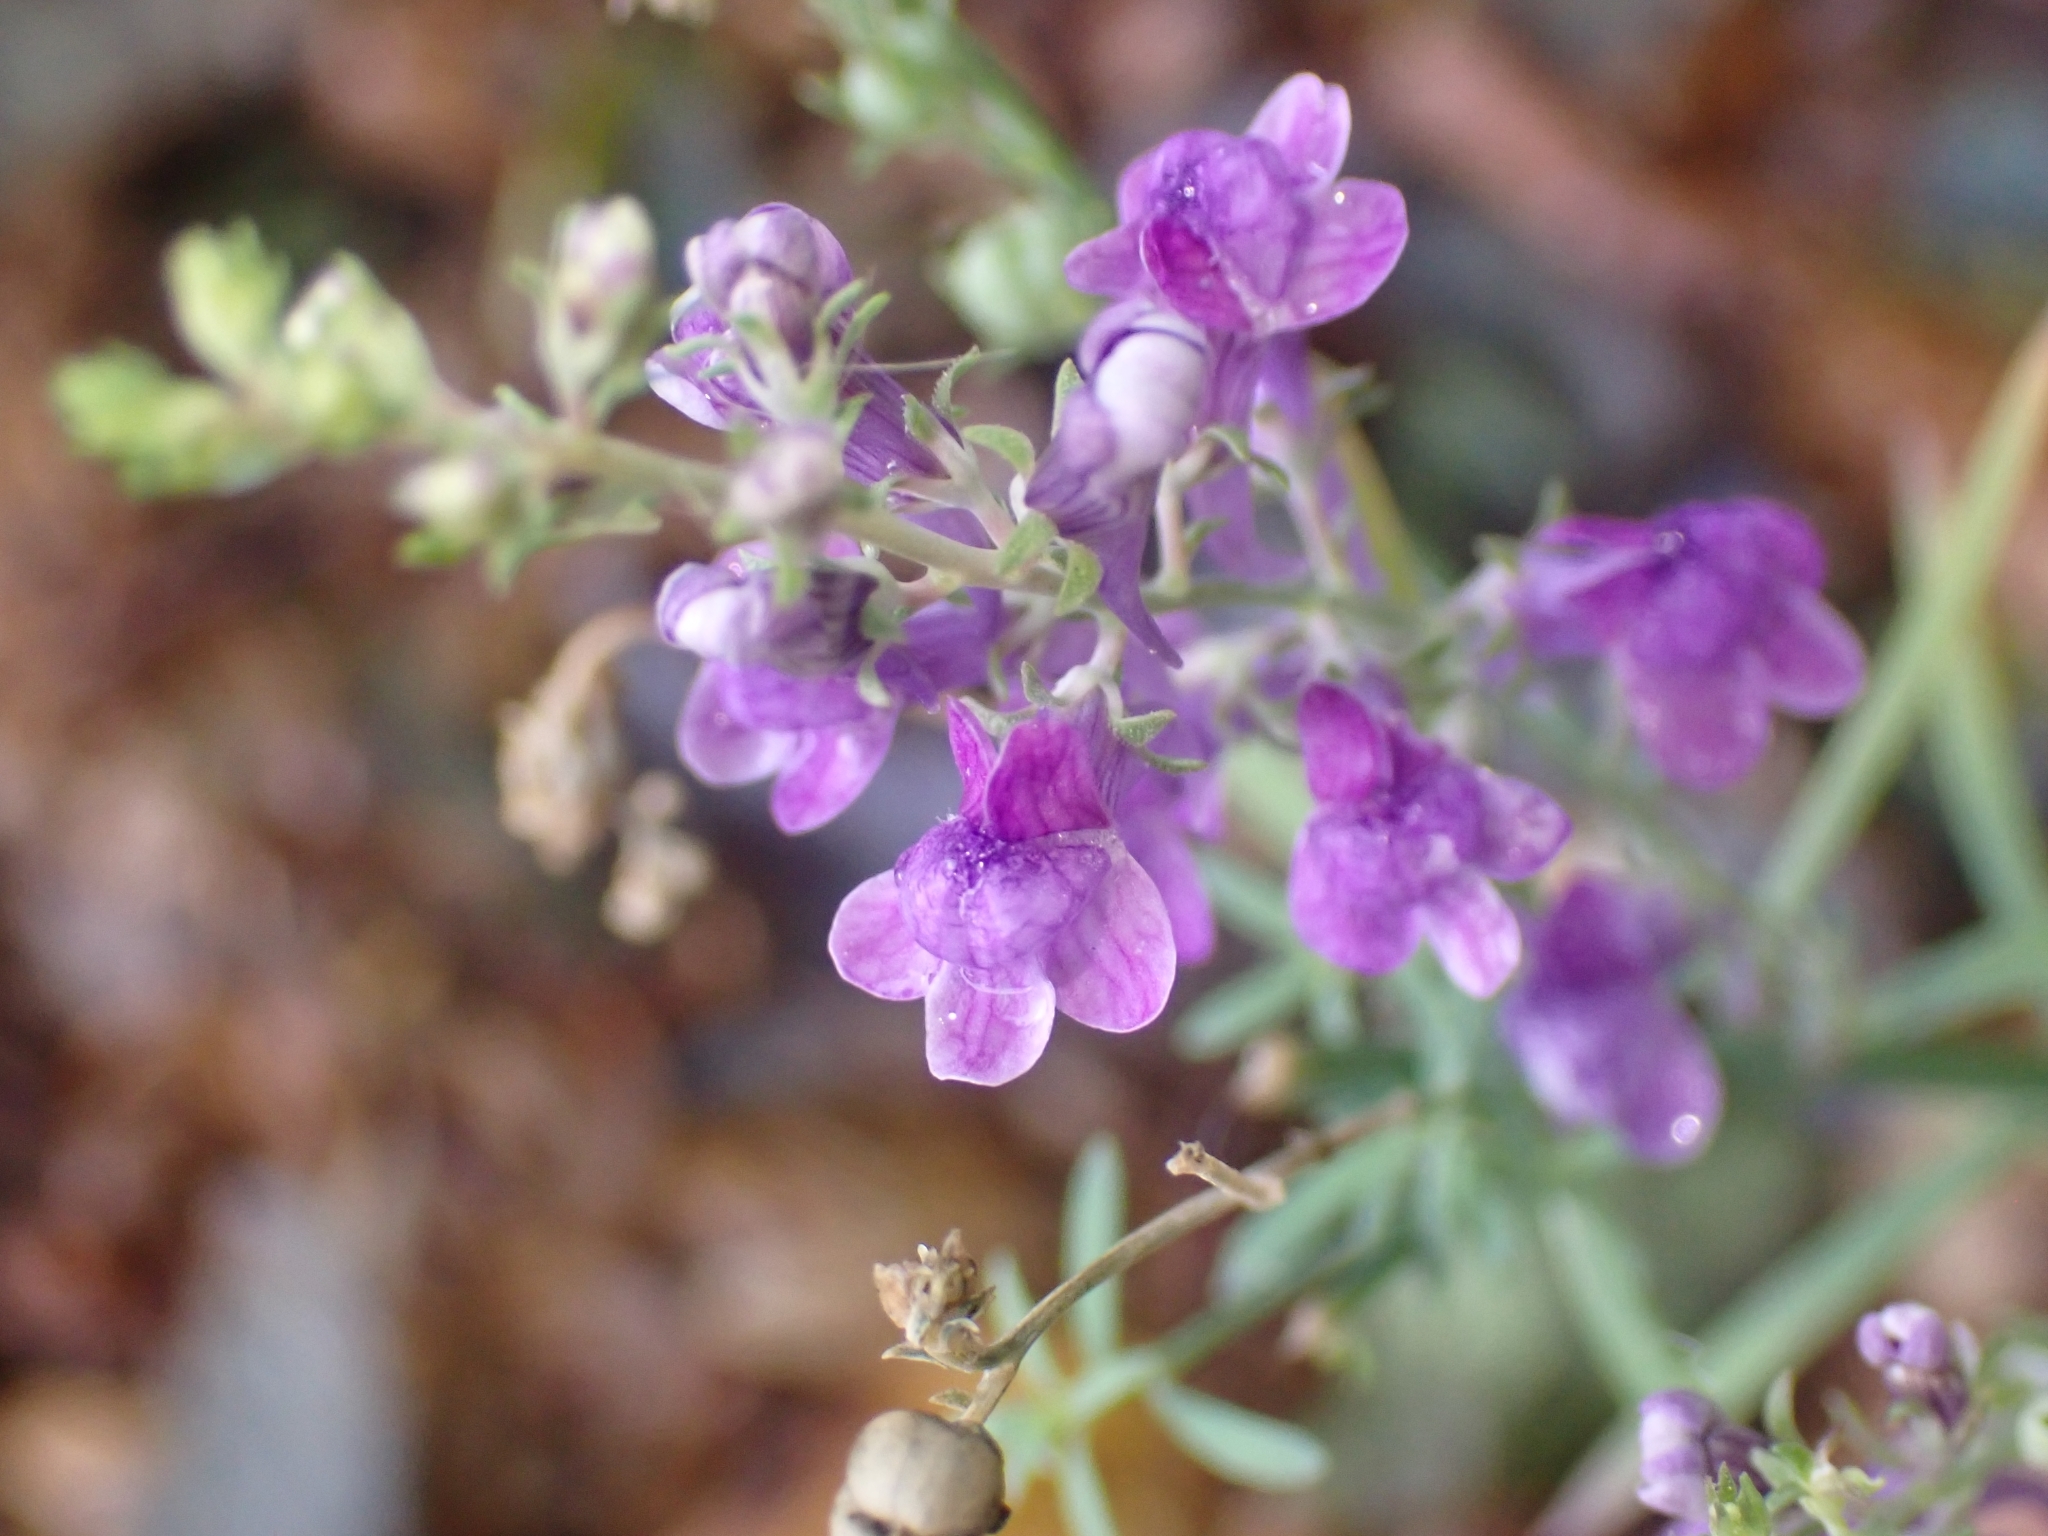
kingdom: Plantae
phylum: Tracheophyta
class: Magnoliopsida
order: Lamiales
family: Plantaginaceae
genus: Linaria
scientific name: Linaria purpurea
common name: Purple toadflax
